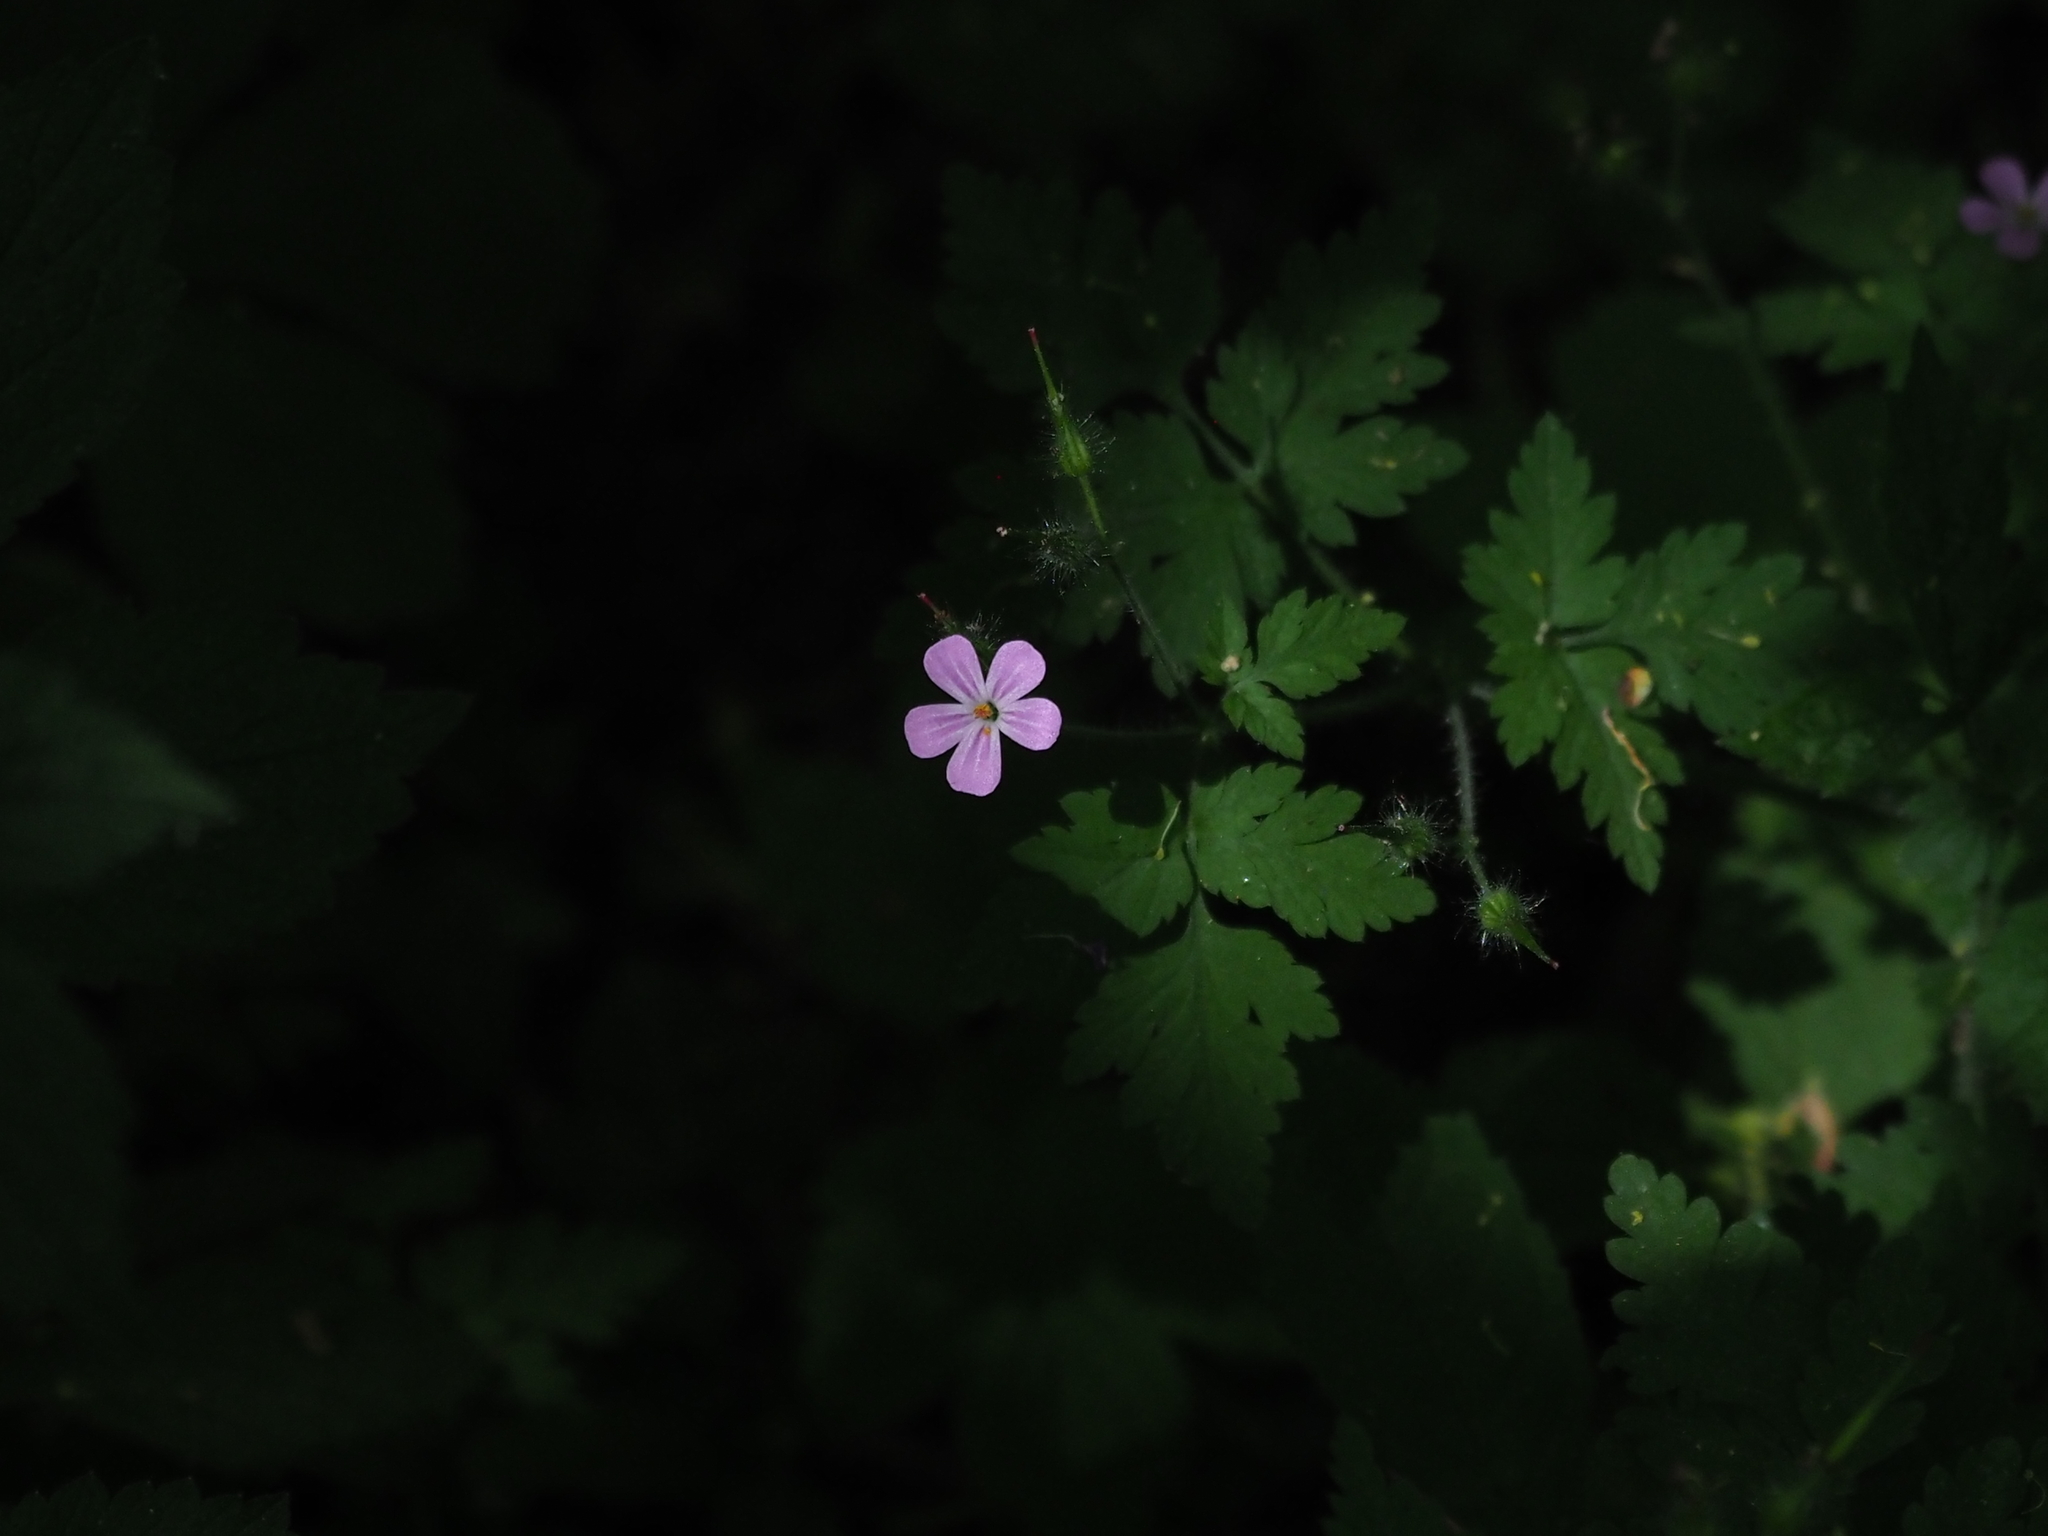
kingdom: Plantae
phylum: Tracheophyta
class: Magnoliopsida
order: Geraniales
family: Geraniaceae
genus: Geranium
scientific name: Geranium robertianum
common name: Herb-robert
